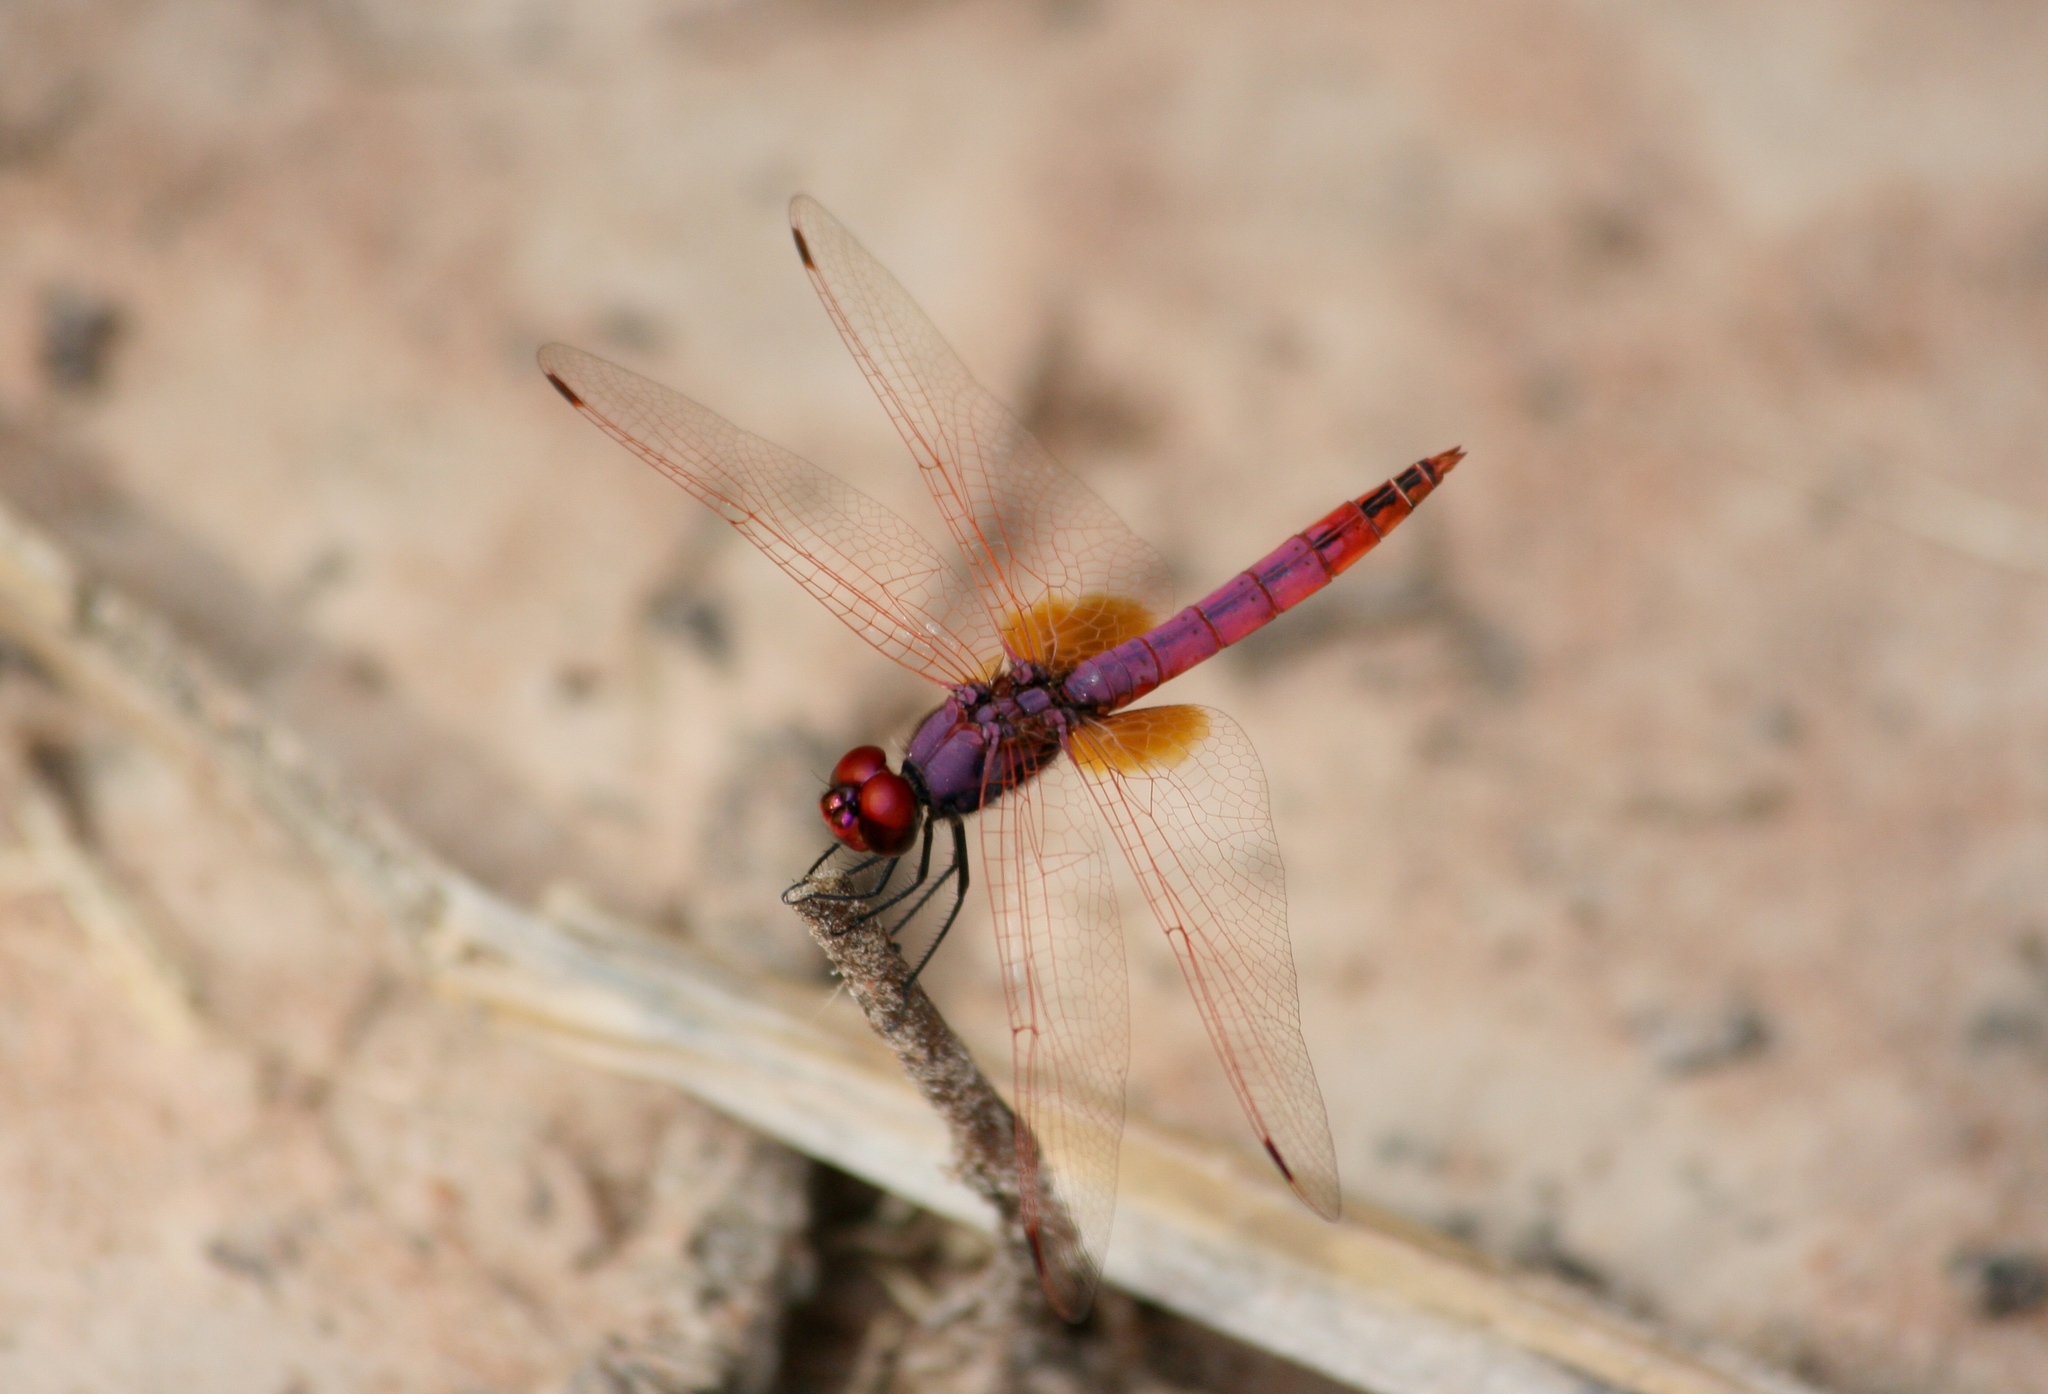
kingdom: Animalia
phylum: Arthropoda
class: Insecta
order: Odonata
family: Libellulidae
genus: Trithemis
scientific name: Trithemis annulata
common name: Violet dropwing
